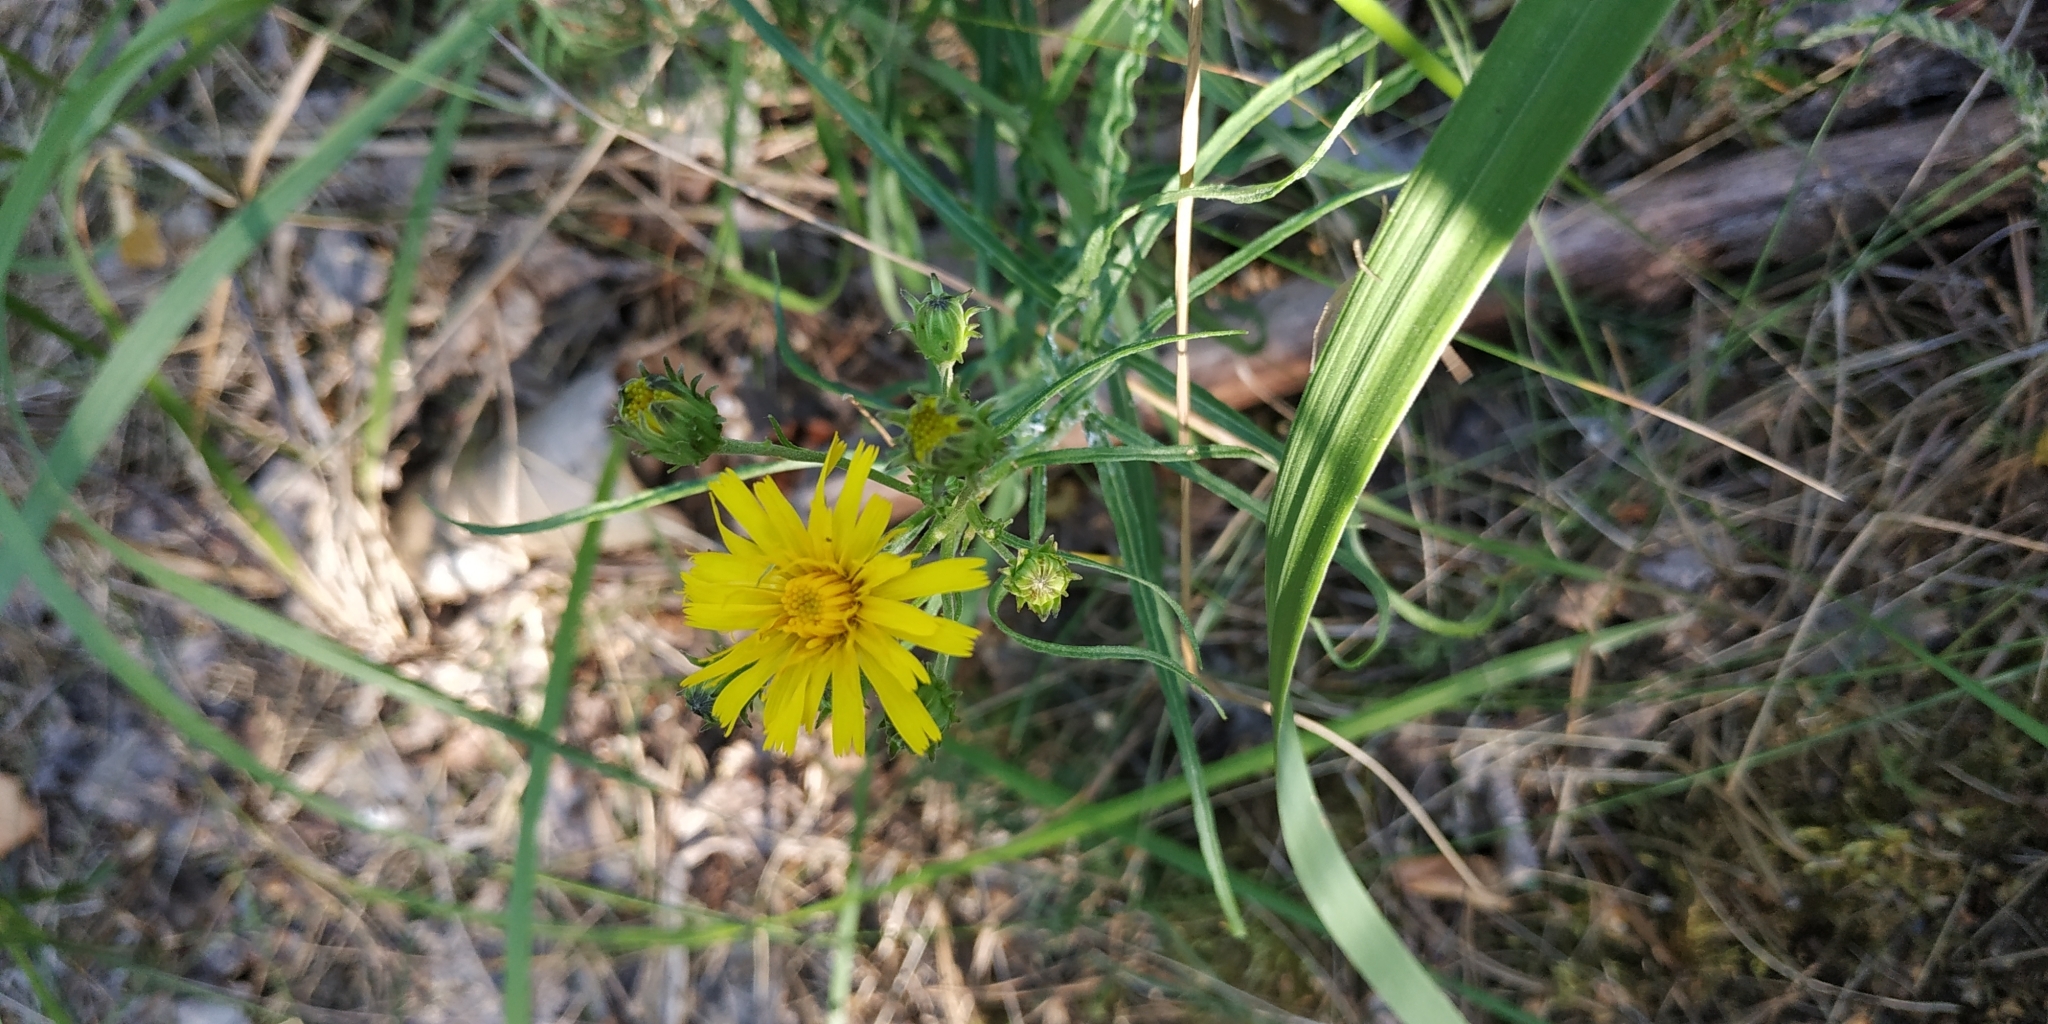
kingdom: Plantae
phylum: Tracheophyta
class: Magnoliopsida
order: Asterales
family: Asteraceae
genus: Hieracium
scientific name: Hieracium umbellatum
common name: Northern hawkweed
